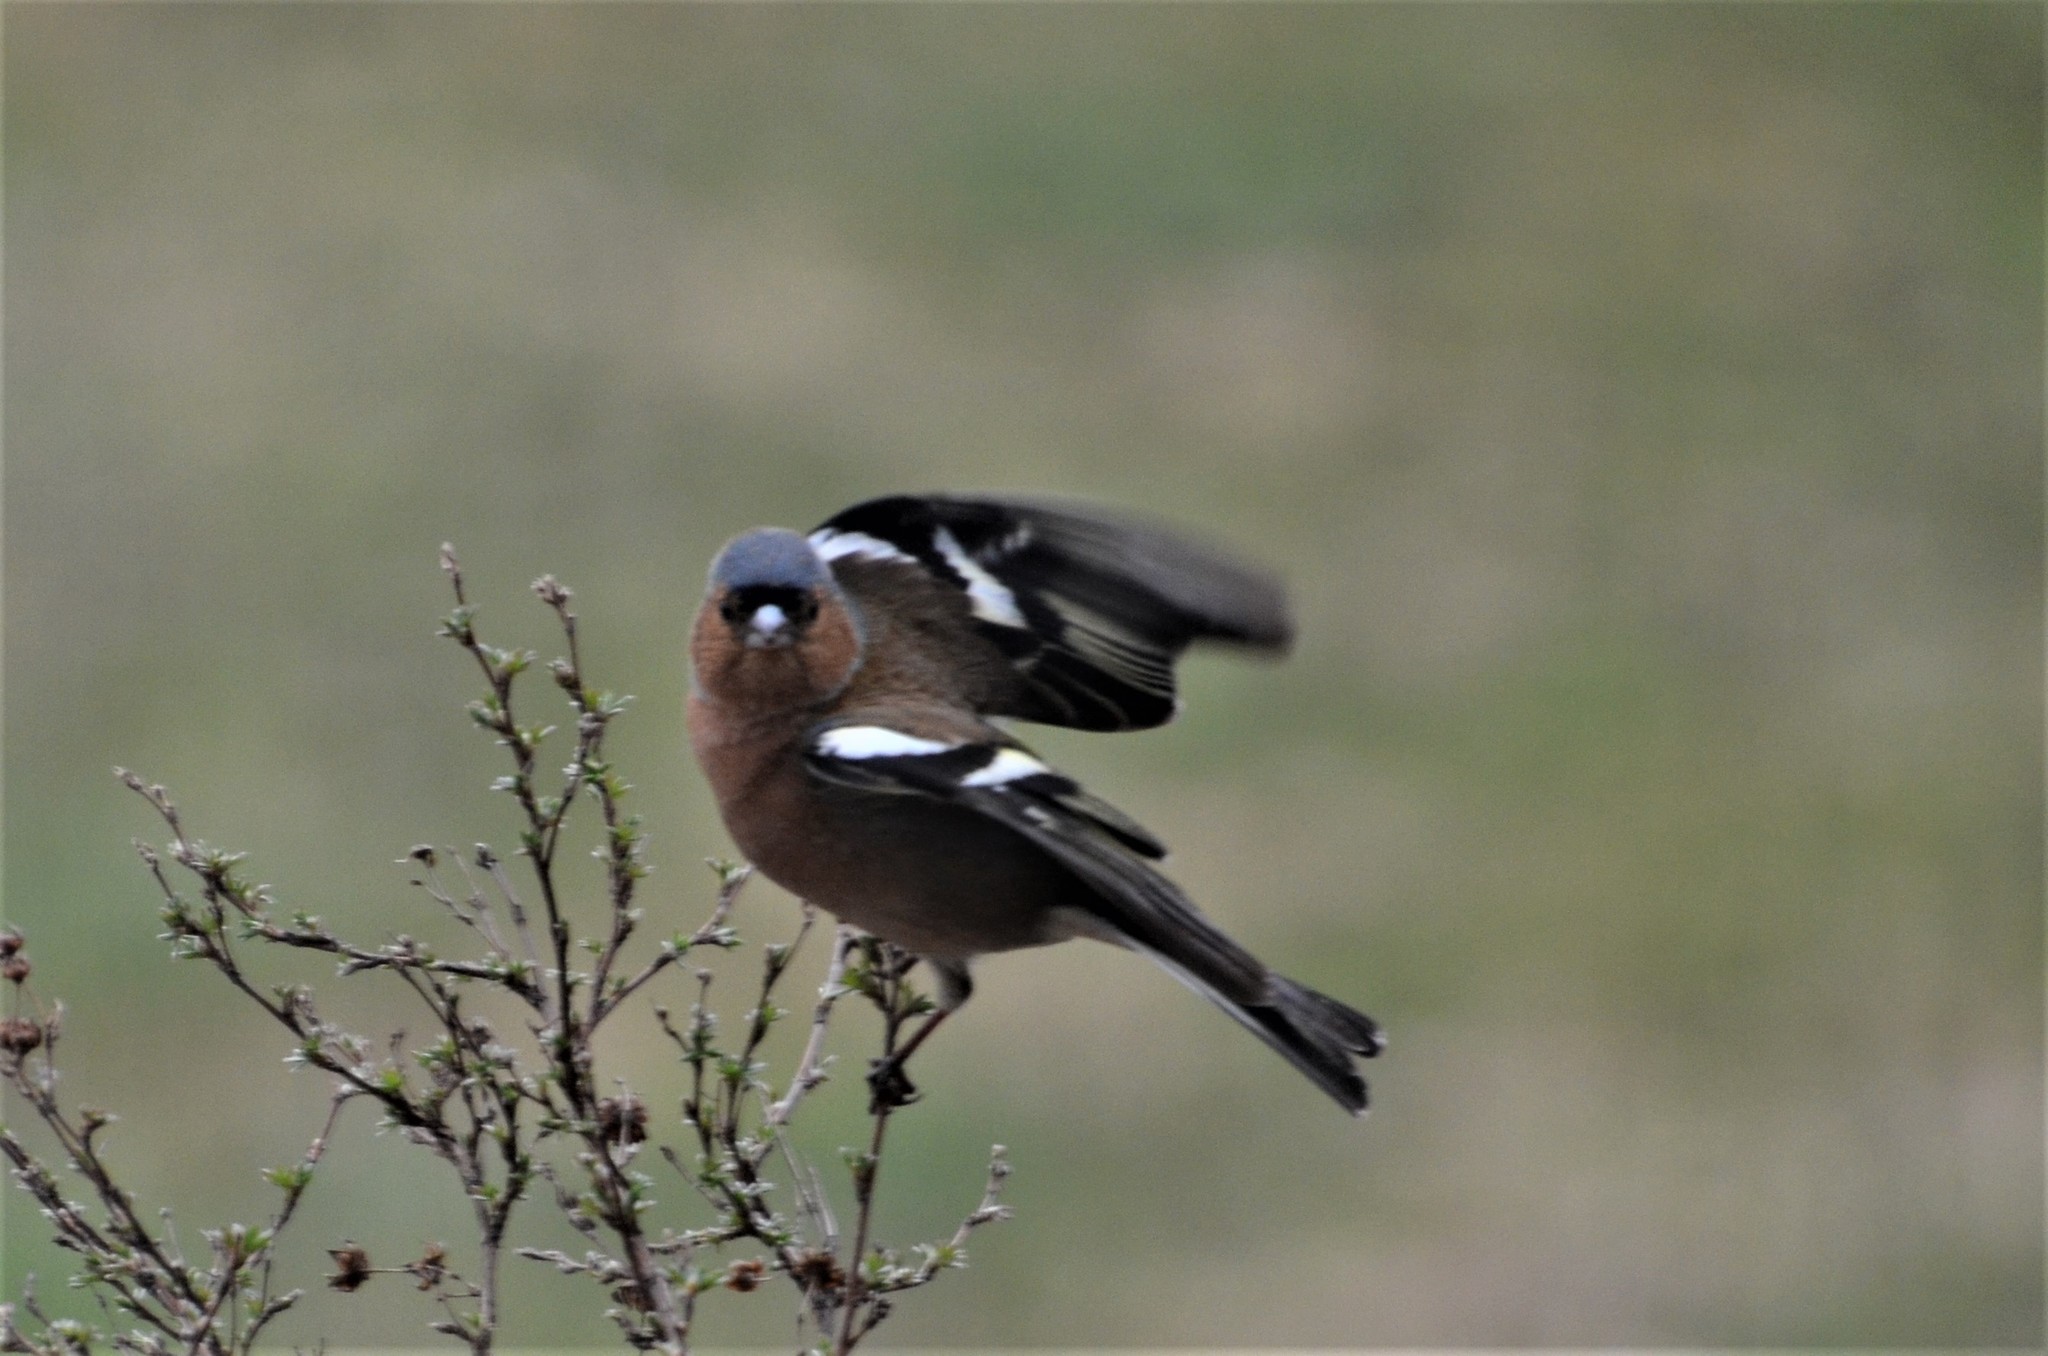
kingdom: Animalia
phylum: Chordata
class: Aves
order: Passeriformes
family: Fringillidae
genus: Fringilla
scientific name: Fringilla coelebs
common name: Common chaffinch
